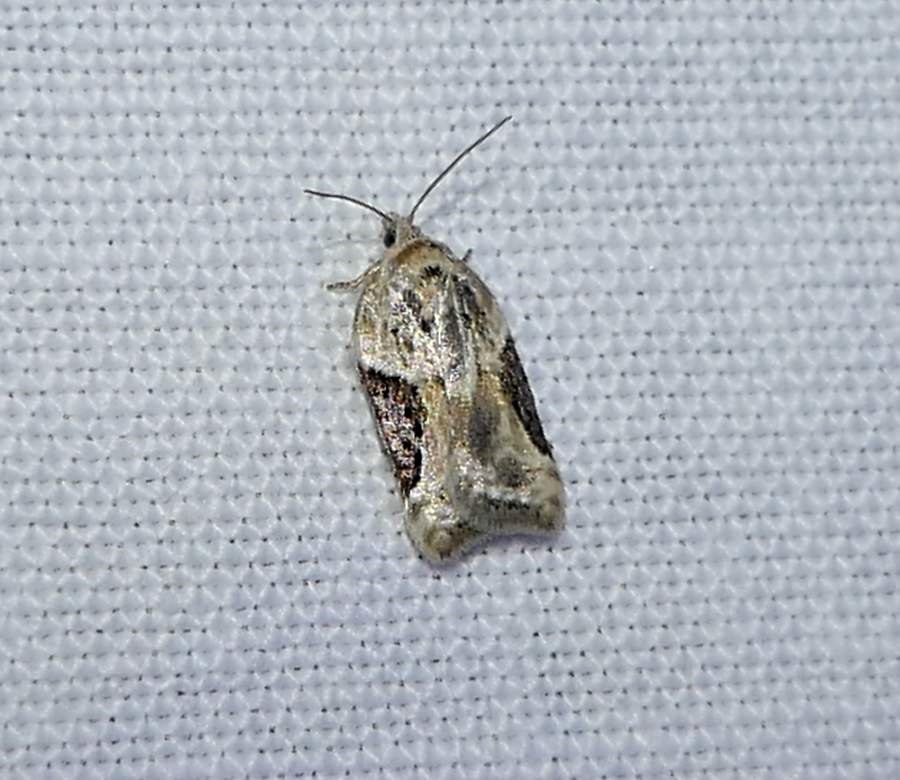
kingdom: Animalia
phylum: Arthropoda
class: Insecta
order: Lepidoptera
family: Tortricidae
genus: Acleris
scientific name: Acleris forbesana
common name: Forbes' acleris moth
